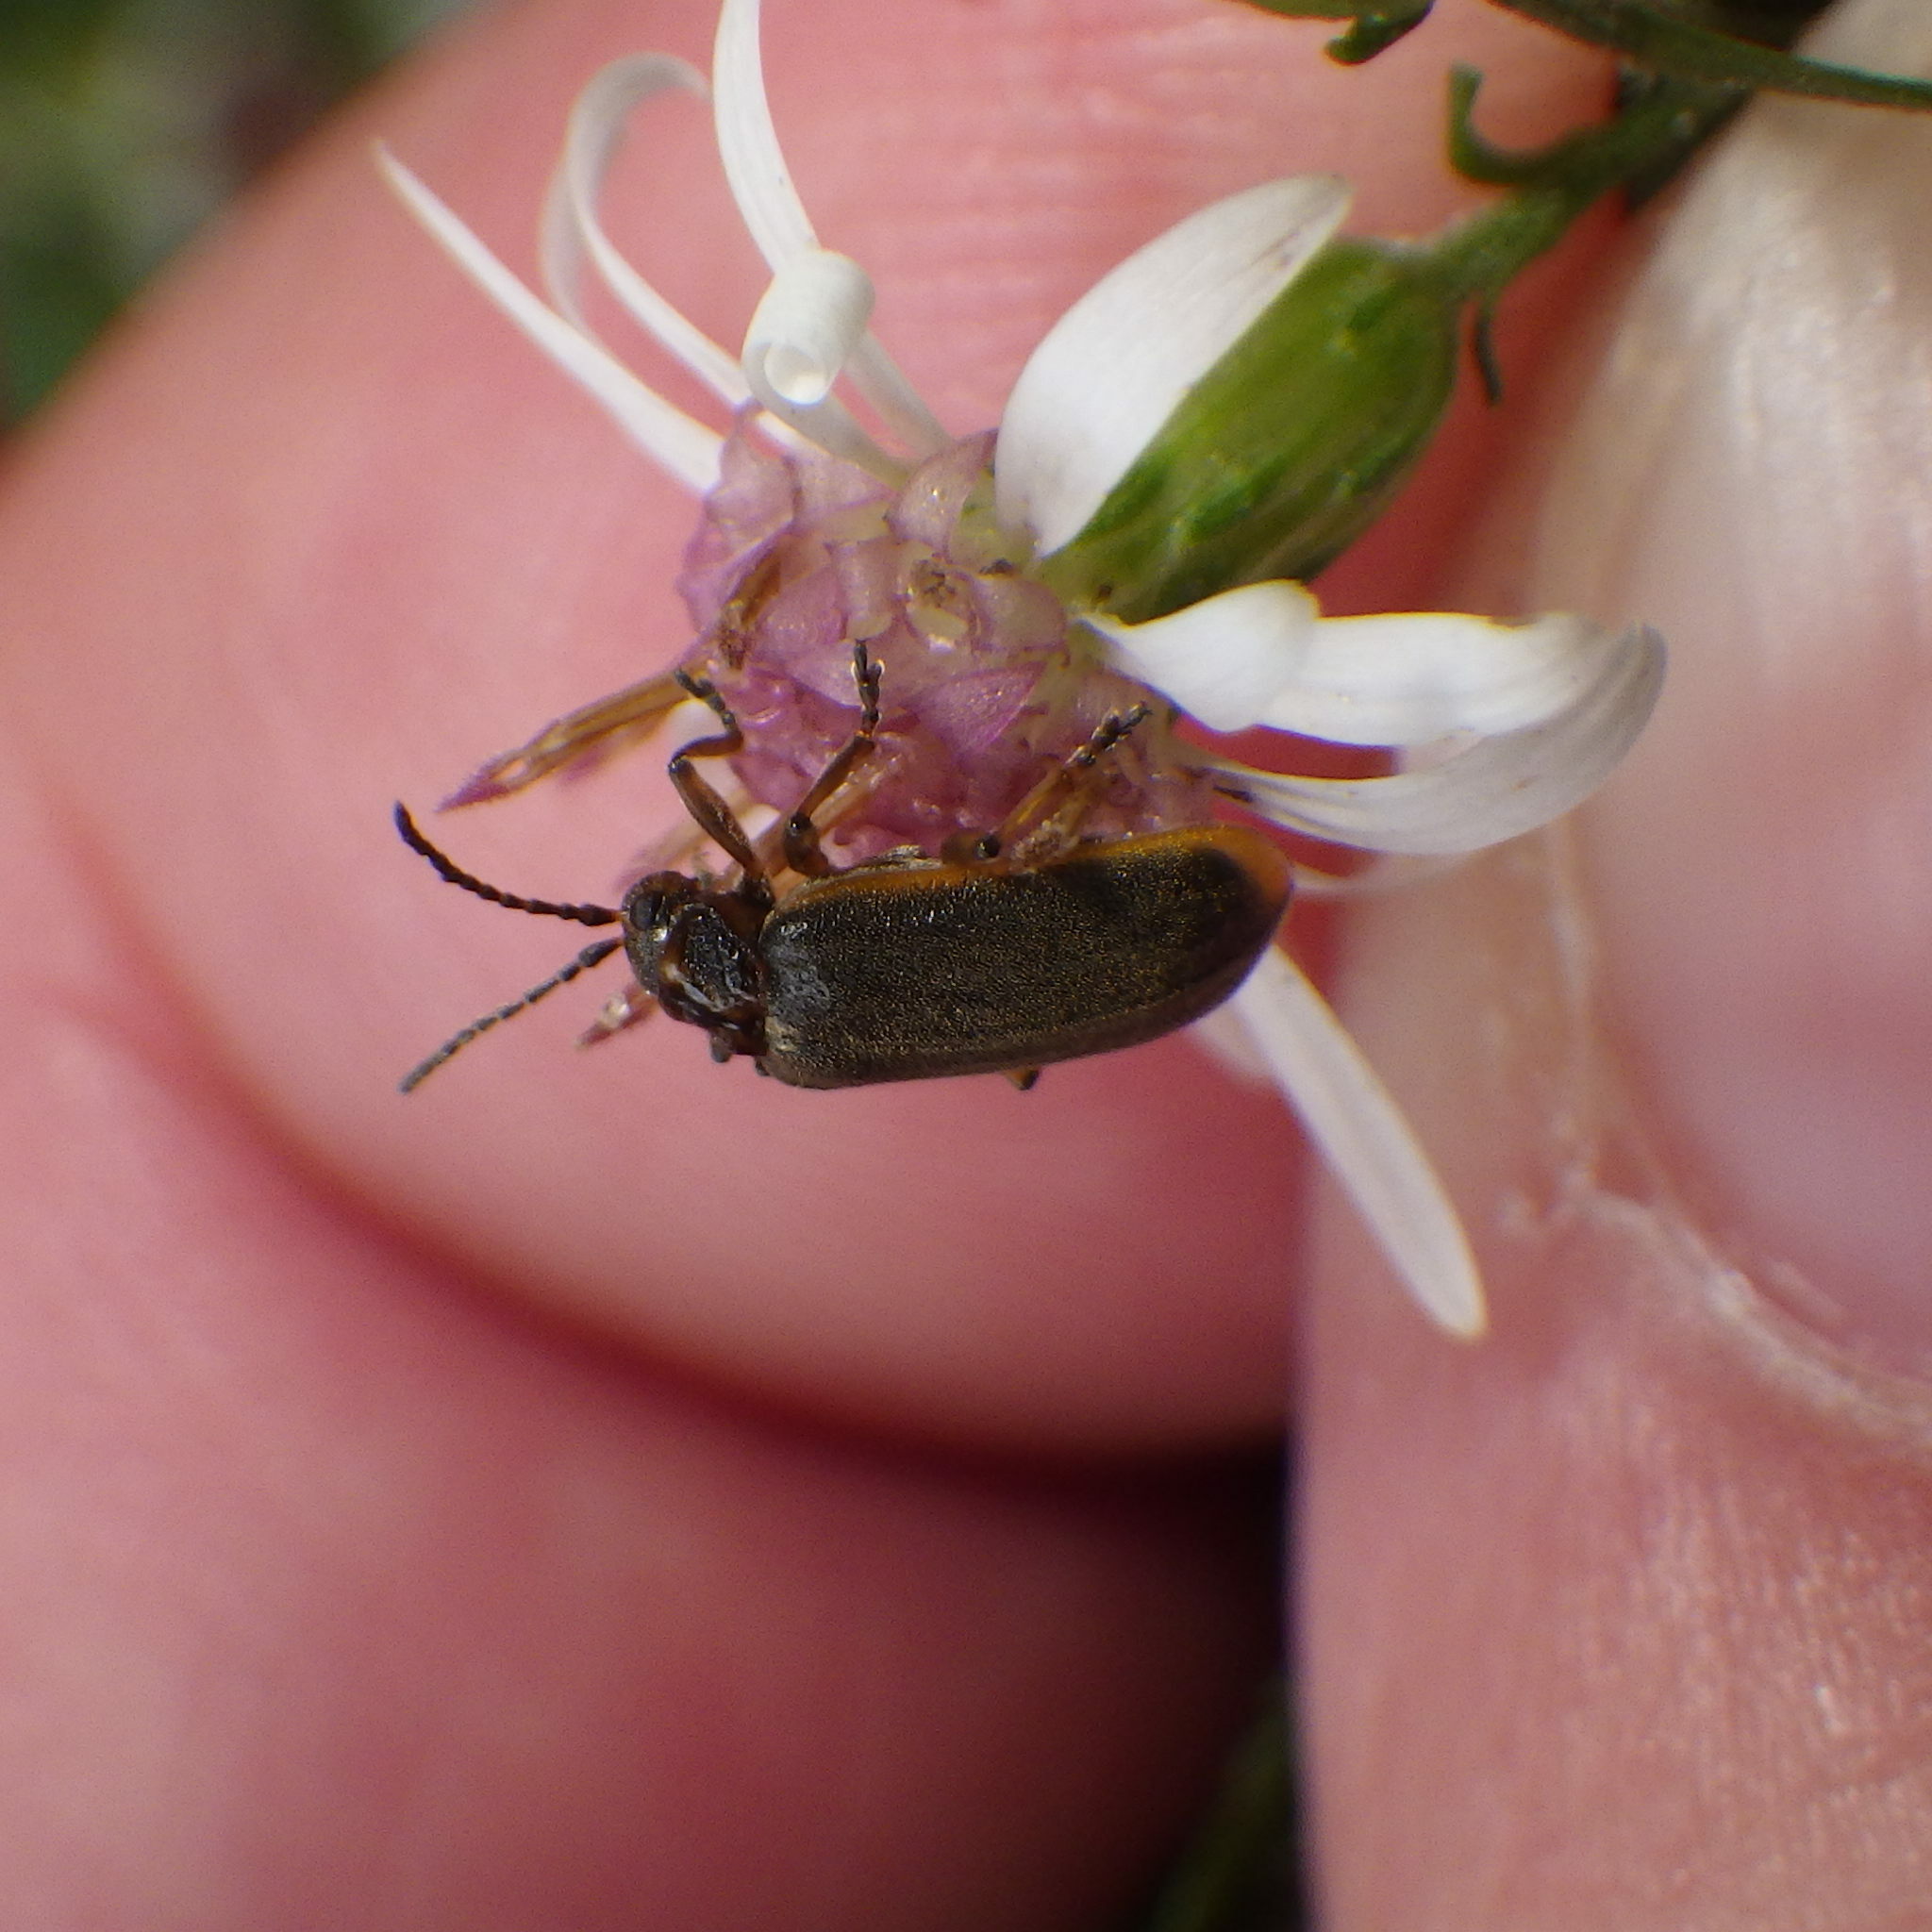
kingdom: Animalia
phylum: Arthropoda
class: Insecta
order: Coleoptera
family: Chrysomelidae
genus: Galerucella
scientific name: Galerucella nymphaeae
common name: Leaf beetle
